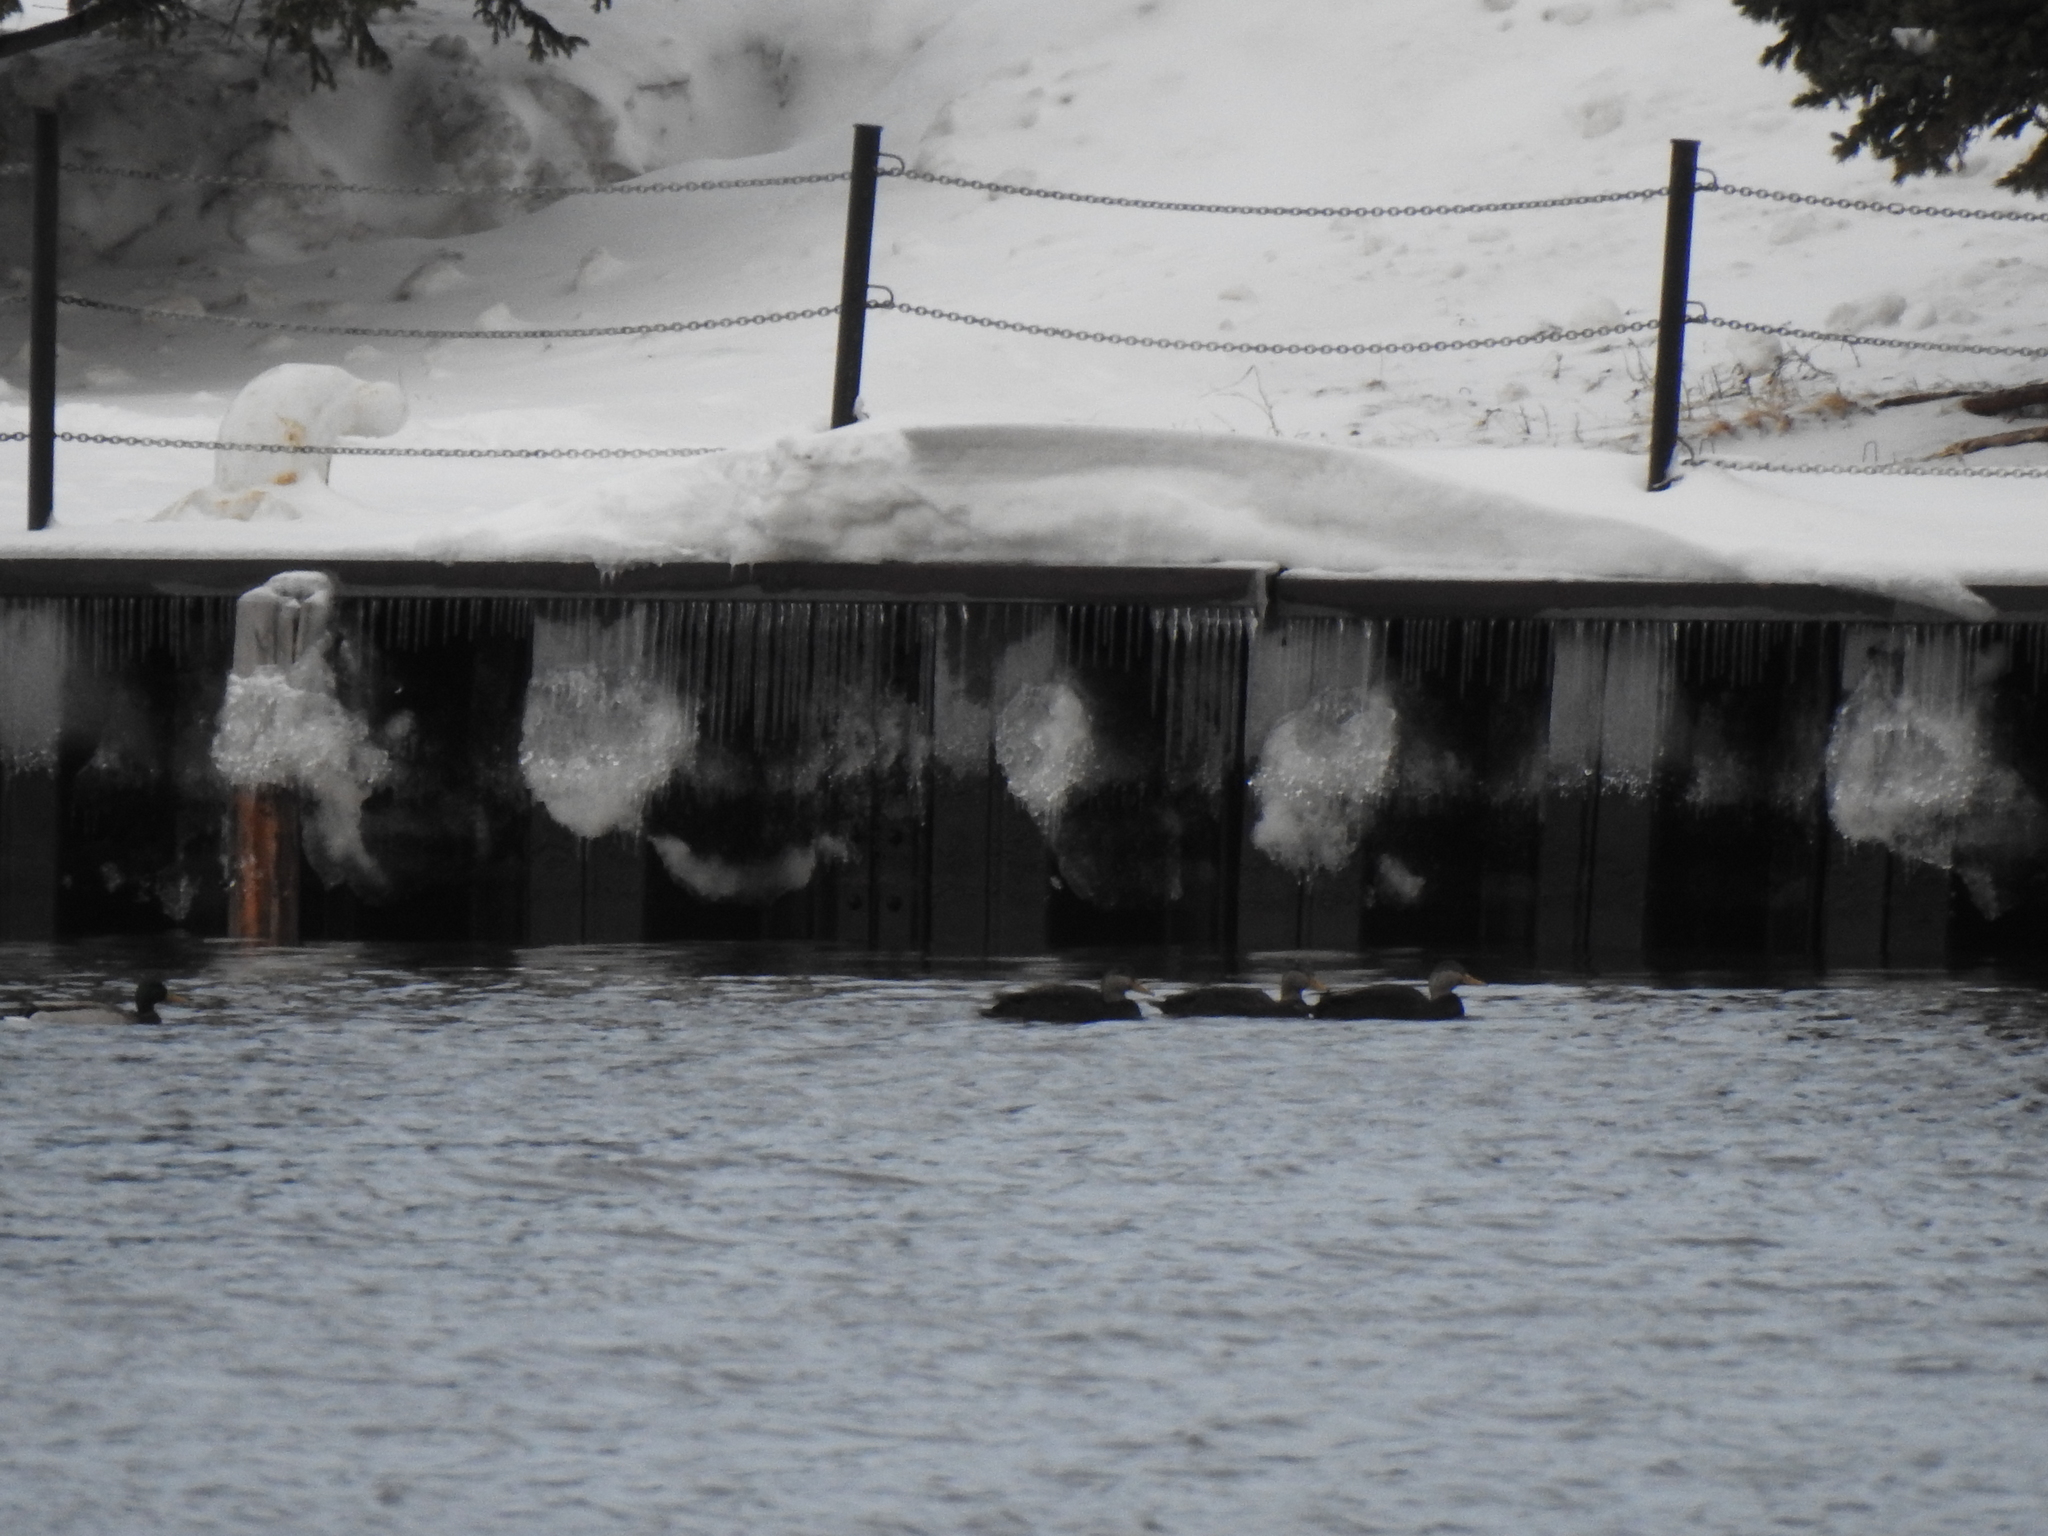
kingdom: Animalia
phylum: Chordata
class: Aves
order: Anseriformes
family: Anatidae
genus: Anas
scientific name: Anas rubripes
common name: American black duck
